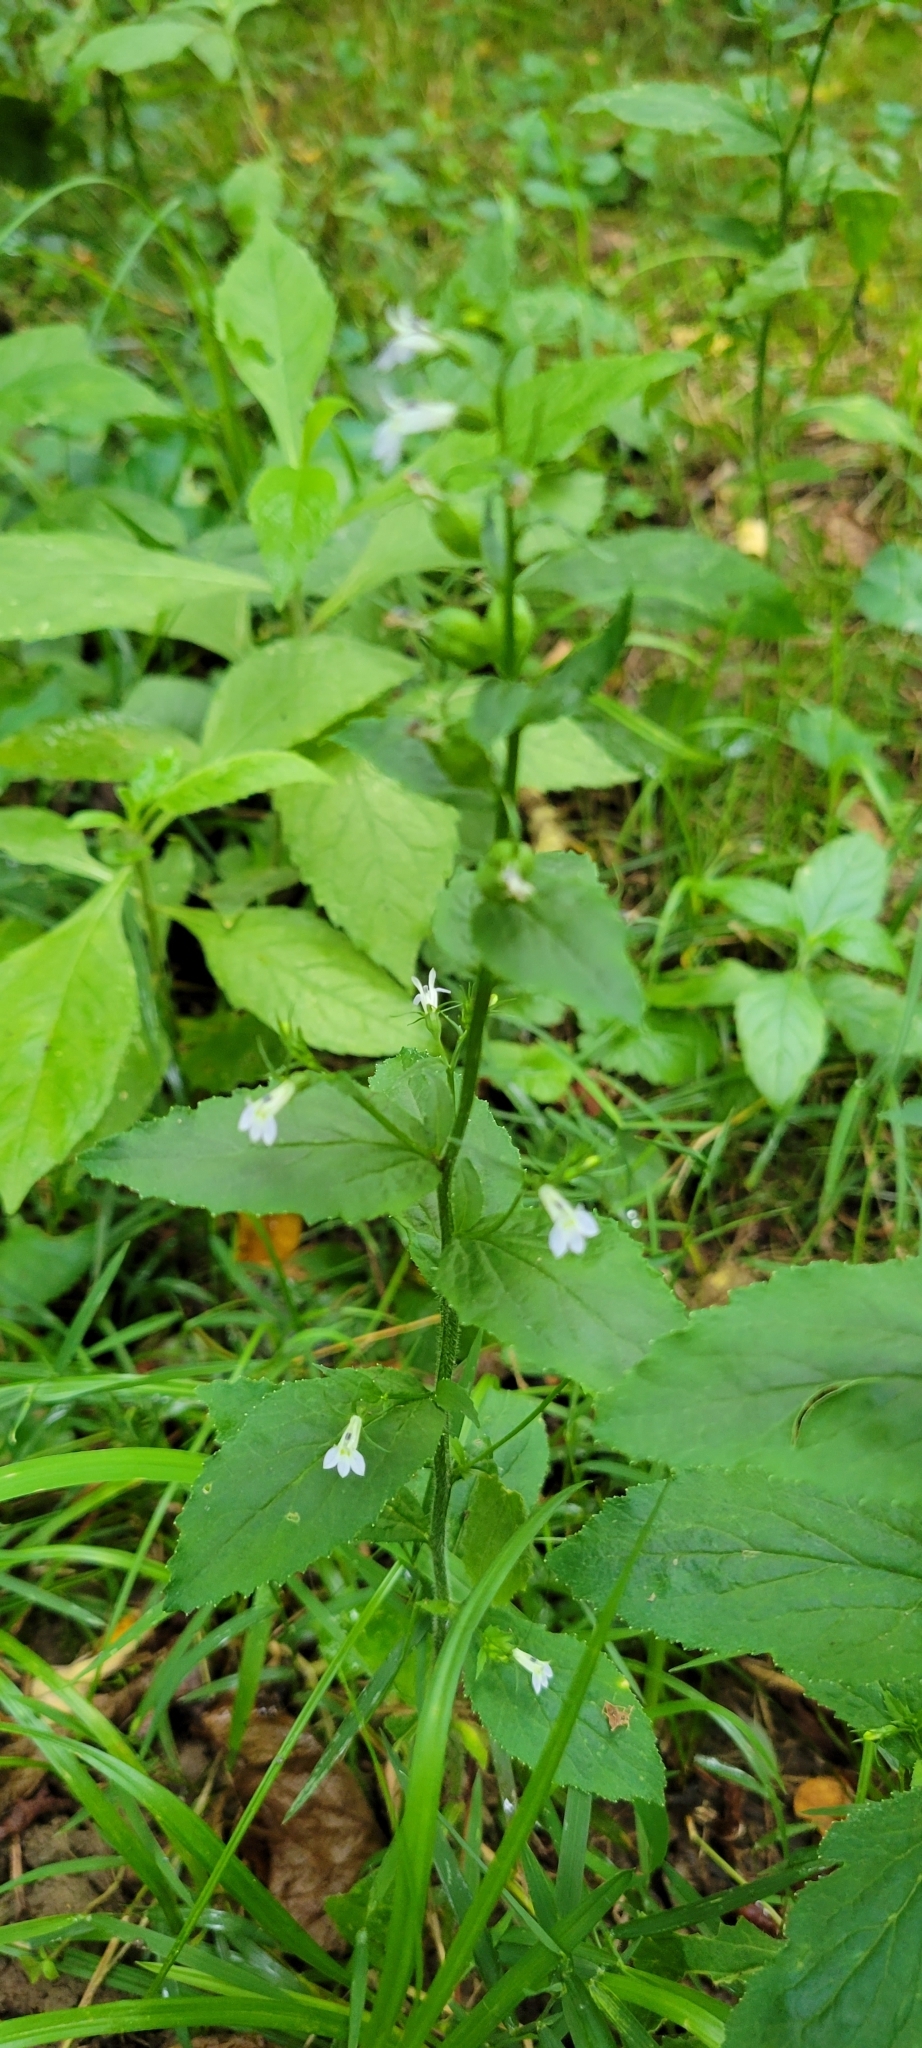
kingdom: Plantae
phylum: Tracheophyta
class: Magnoliopsida
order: Asterales
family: Campanulaceae
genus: Lobelia
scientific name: Lobelia inflata
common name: Indian tobacco
